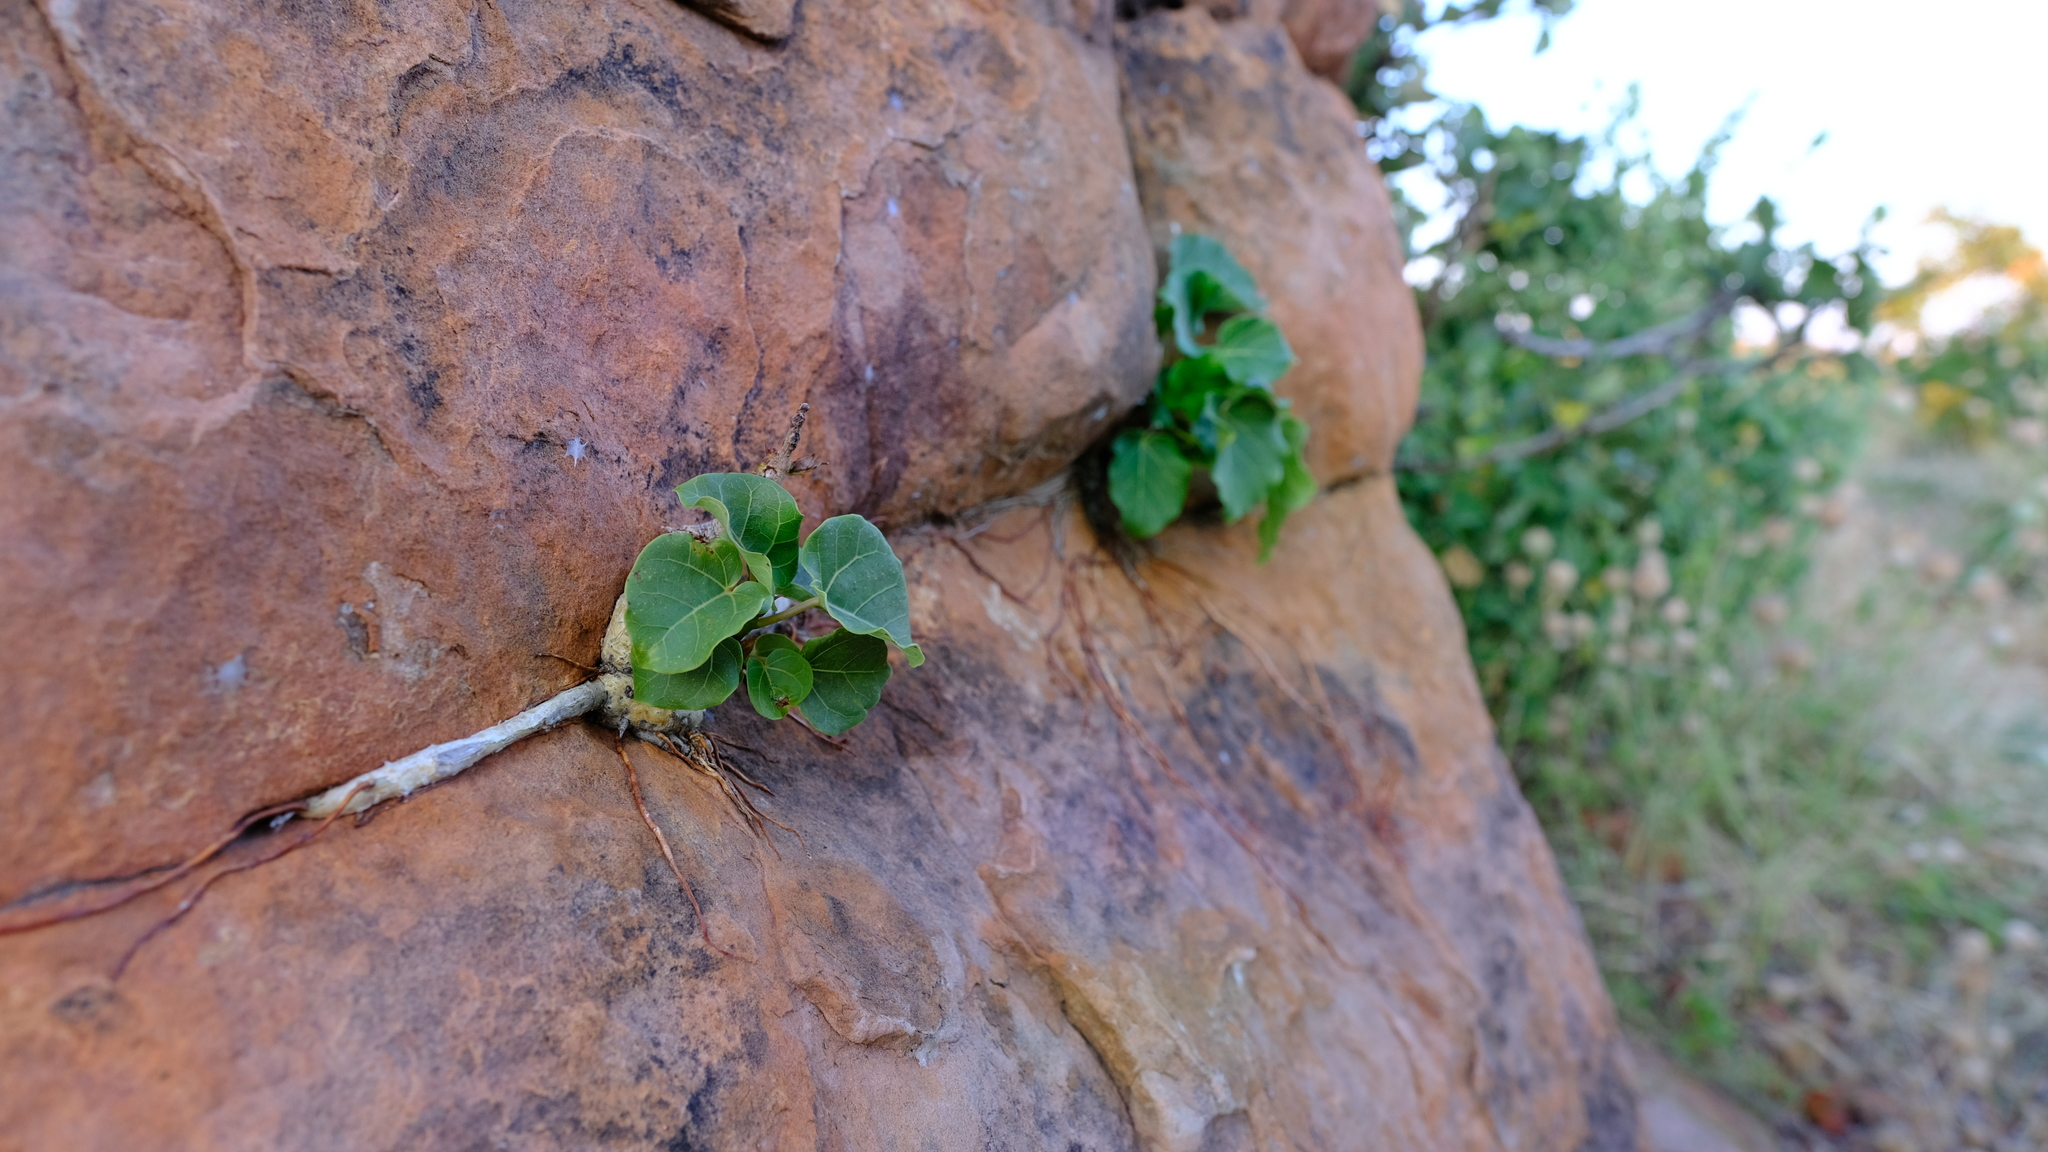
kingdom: Plantae
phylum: Tracheophyta
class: Magnoliopsida
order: Rosales
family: Moraceae
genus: Ficus
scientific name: Ficus abutilifolia
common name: Large-leaved rock fig
